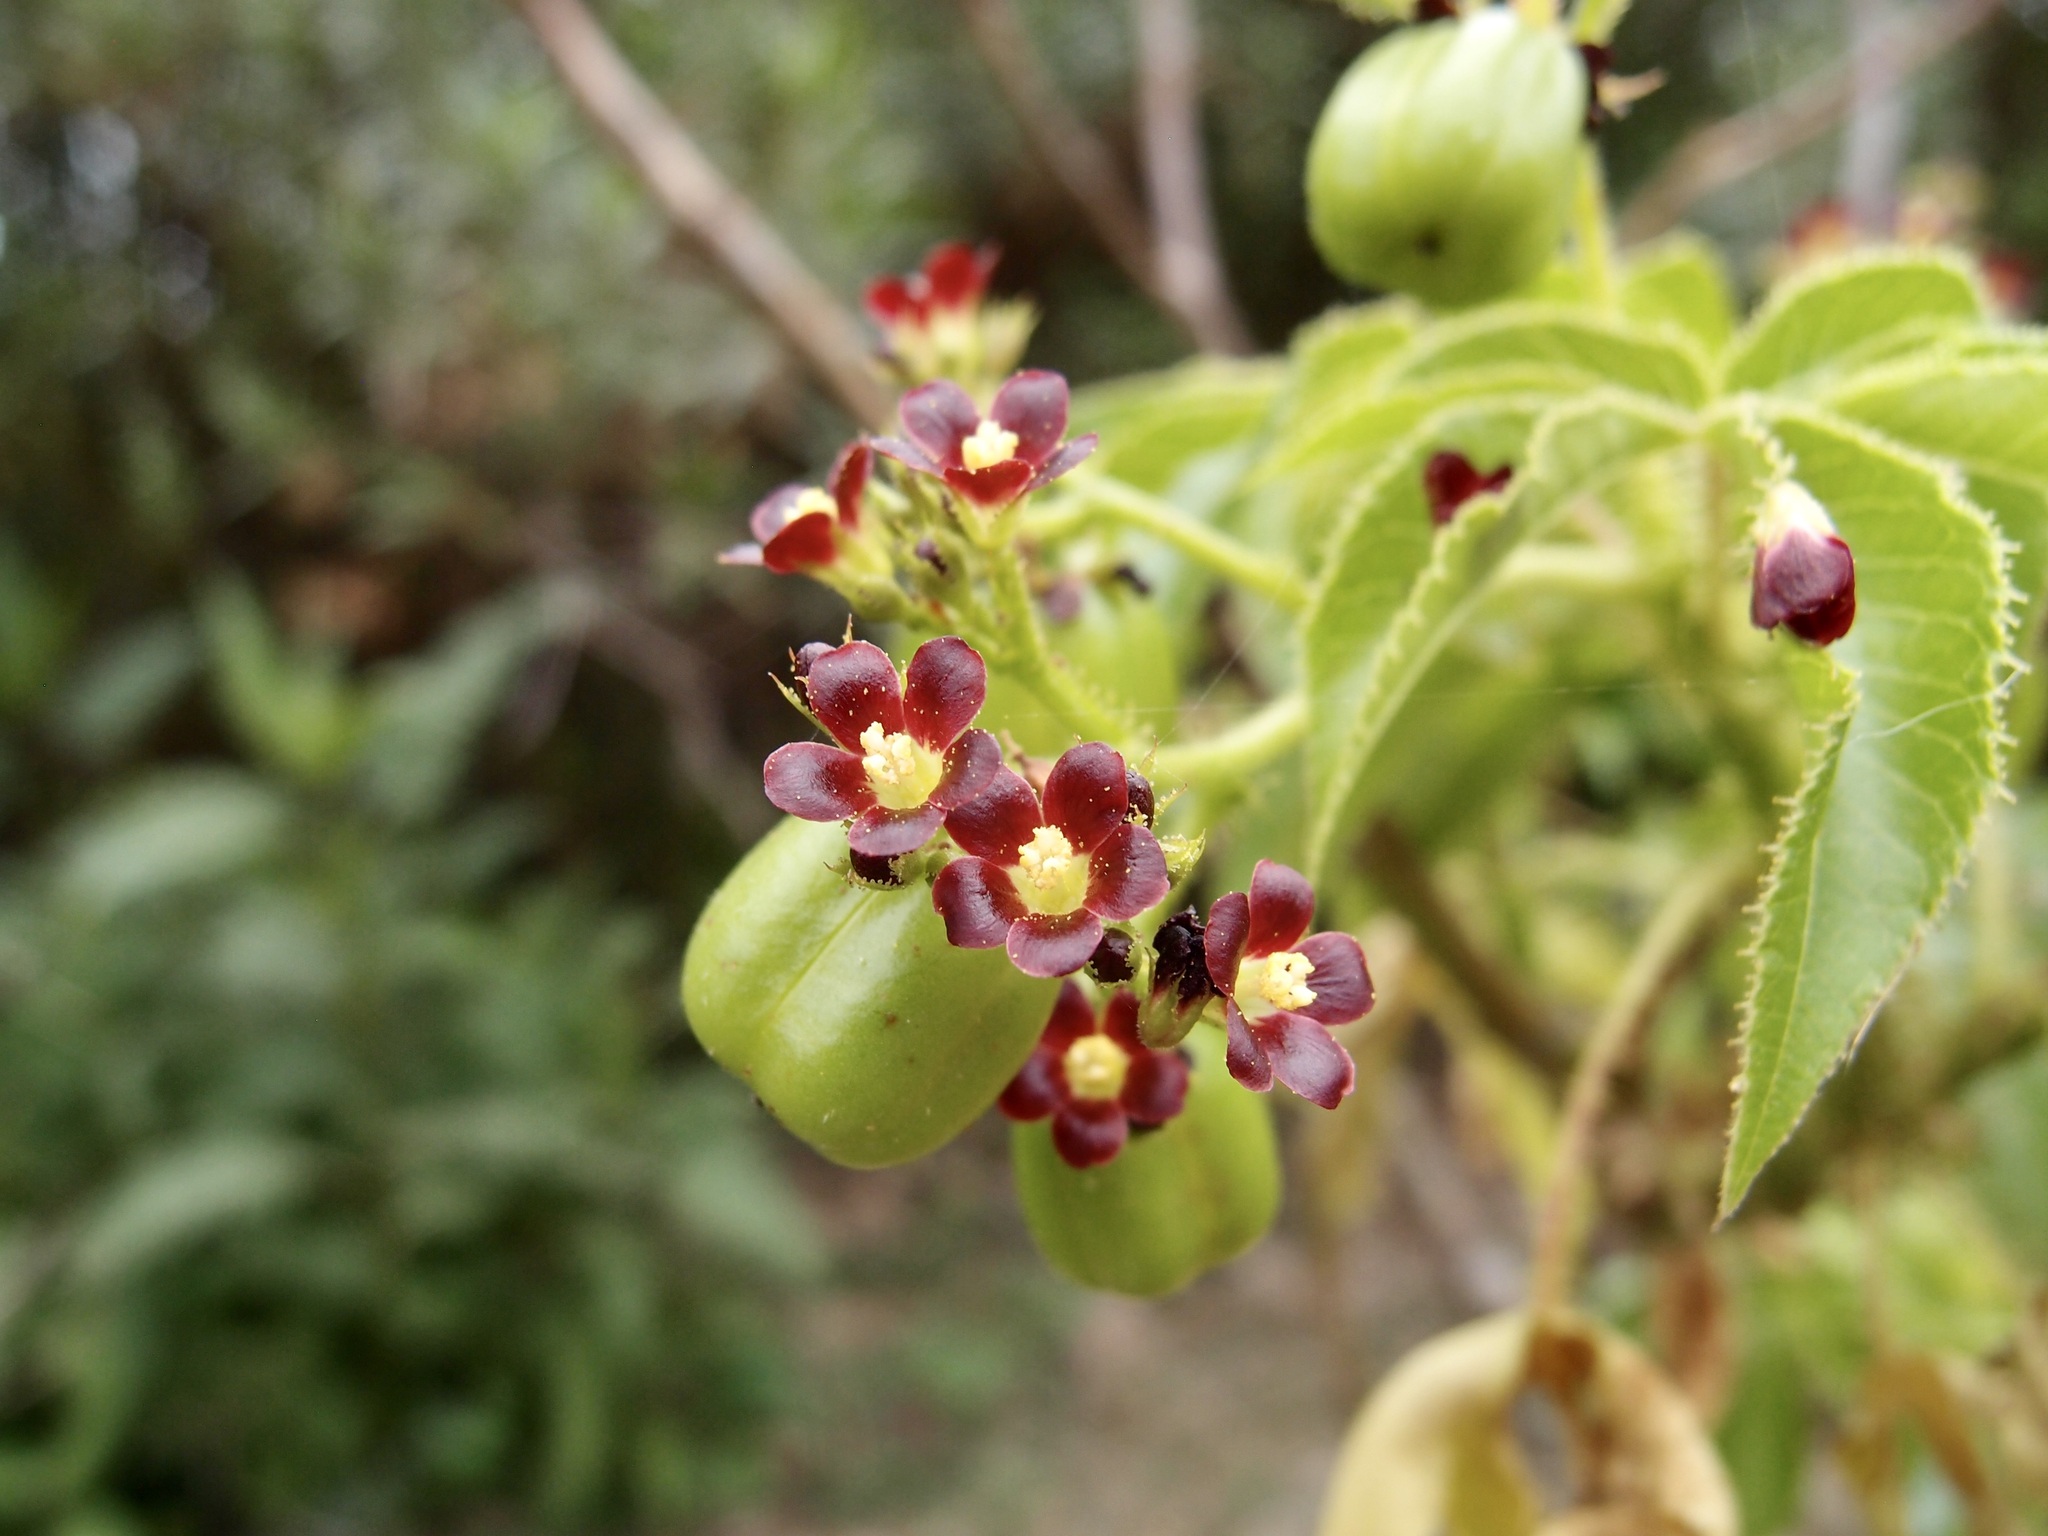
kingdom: Plantae
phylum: Tracheophyta
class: Magnoliopsida
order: Malpighiales
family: Euphorbiaceae
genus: Jatropha
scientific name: Jatropha gossypiifolia
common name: Bellyache bush
